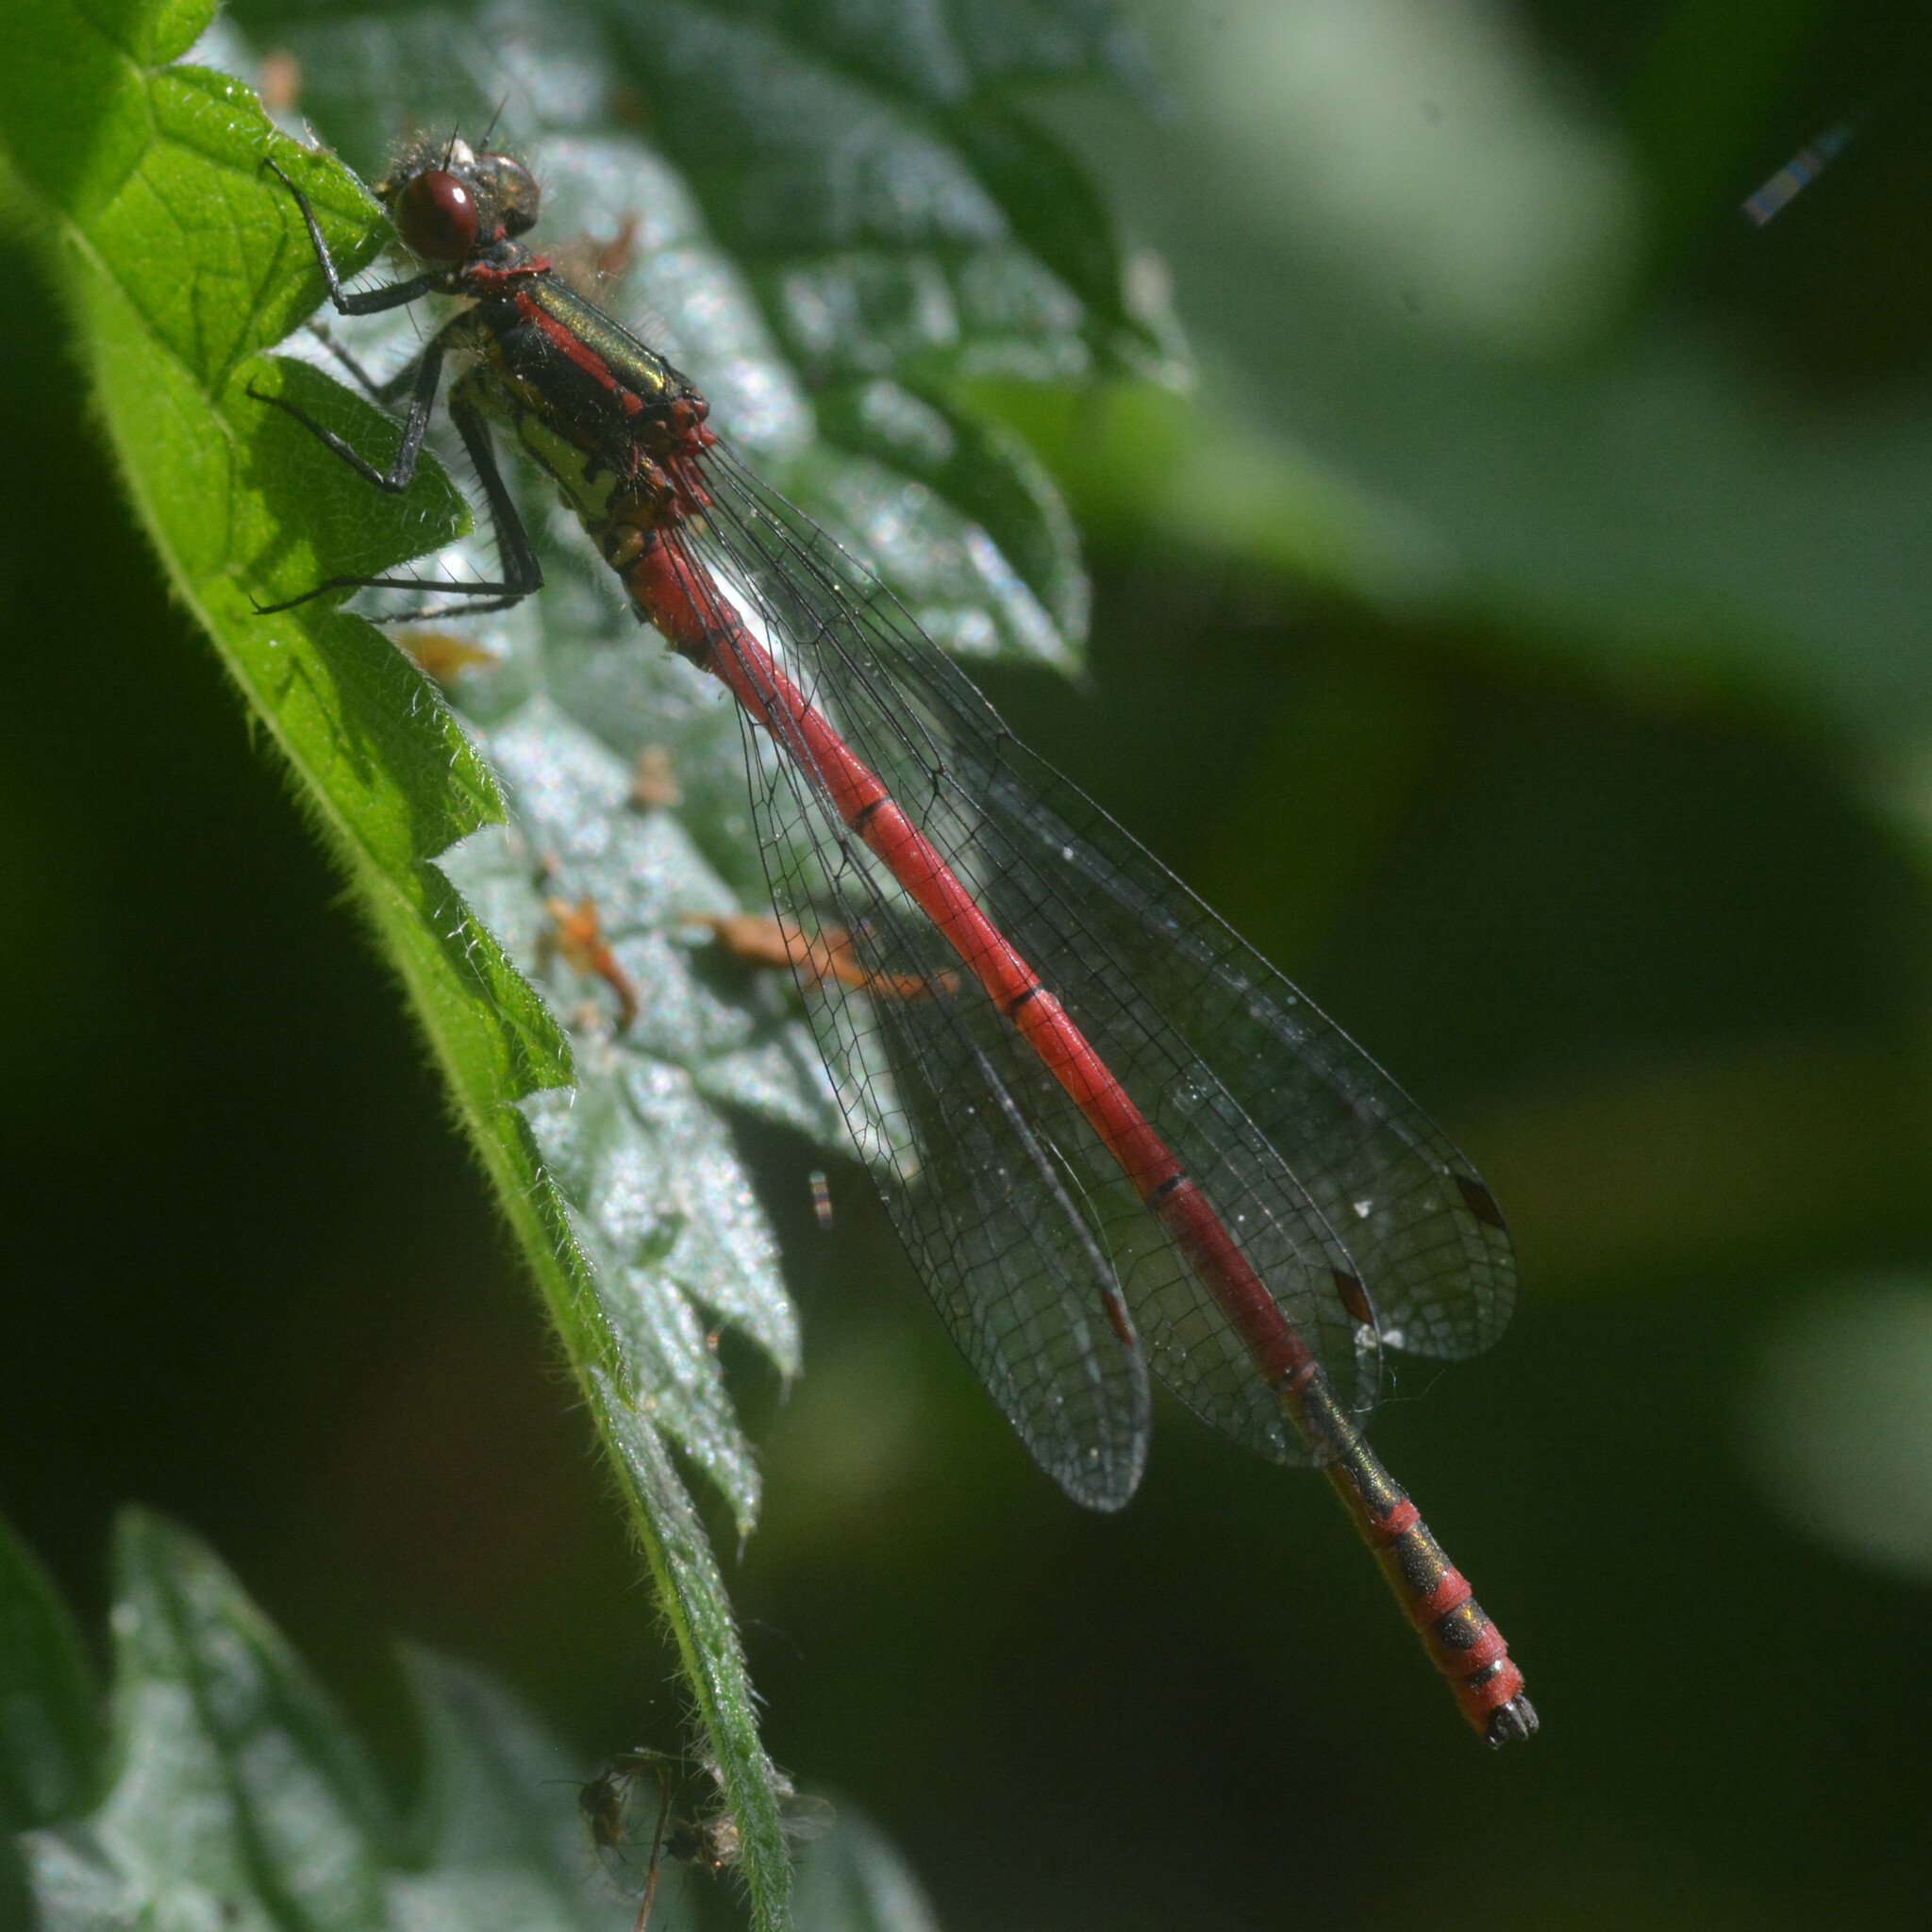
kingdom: Animalia
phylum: Arthropoda
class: Insecta
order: Odonata
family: Coenagrionidae
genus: Pyrrhosoma
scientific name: Pyrrhosoma nymphula
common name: Large red damsel
